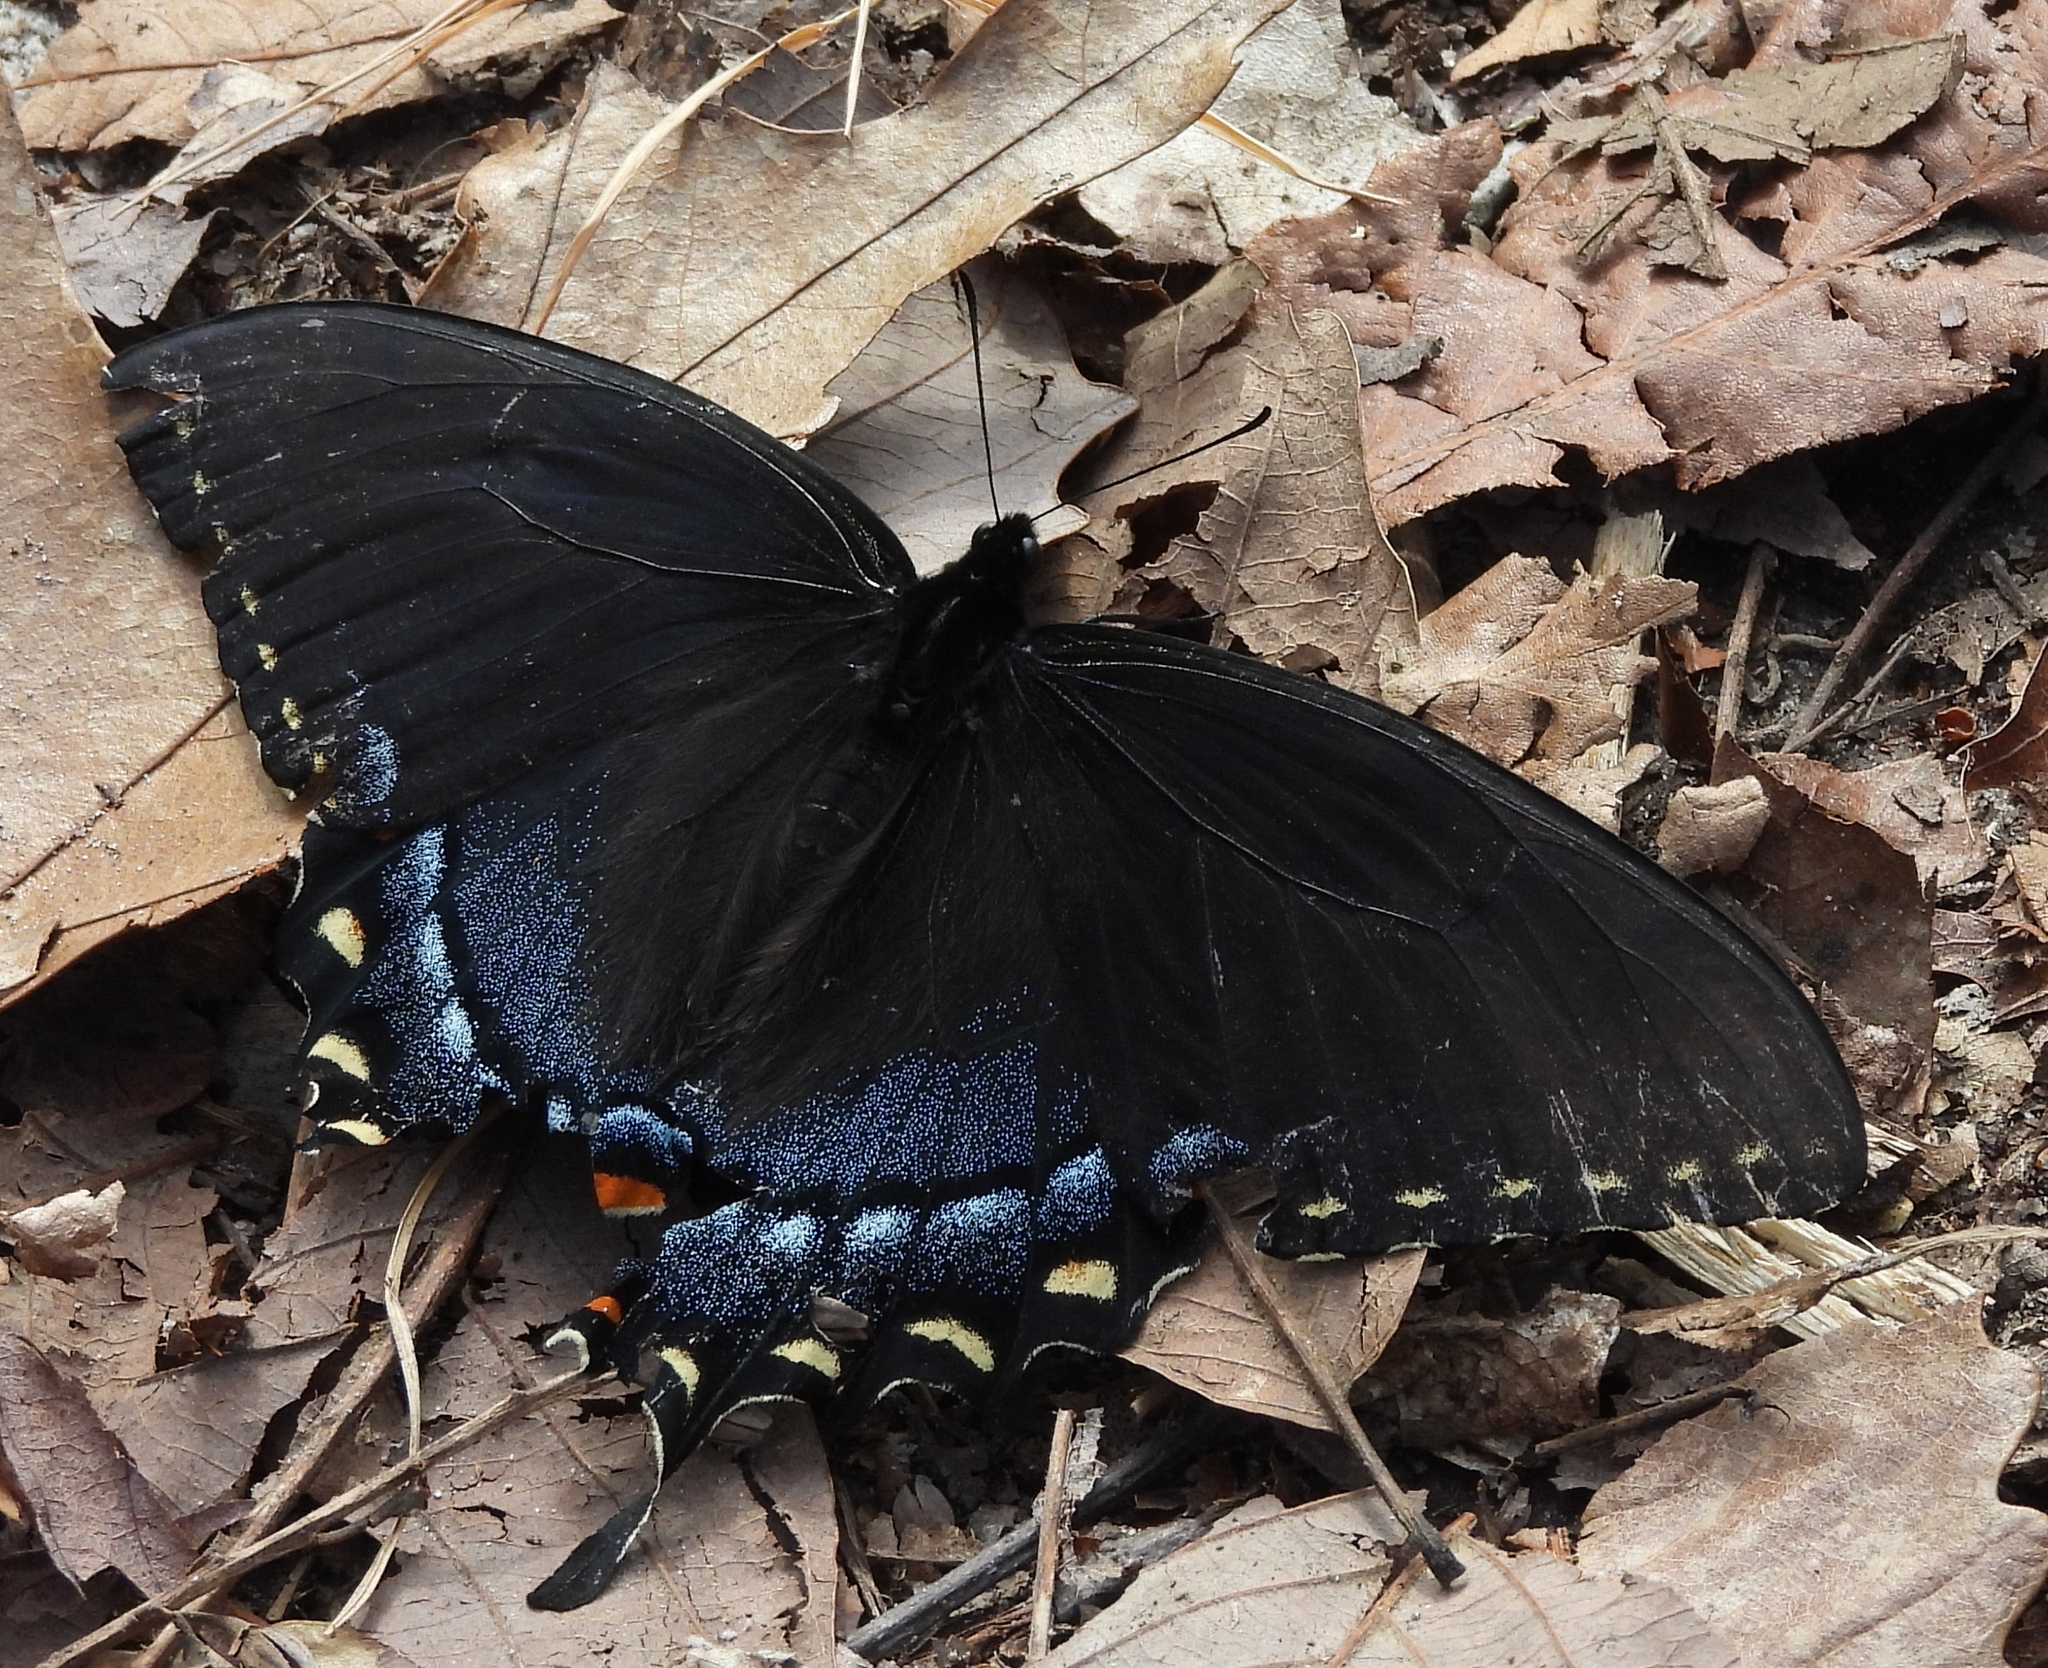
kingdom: Animalia
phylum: Arthropoda
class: Insecta
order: Lepidoptera
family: Papilionidae
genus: Papilio
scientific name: Papilio glaucus
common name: Tiger swallowtail
